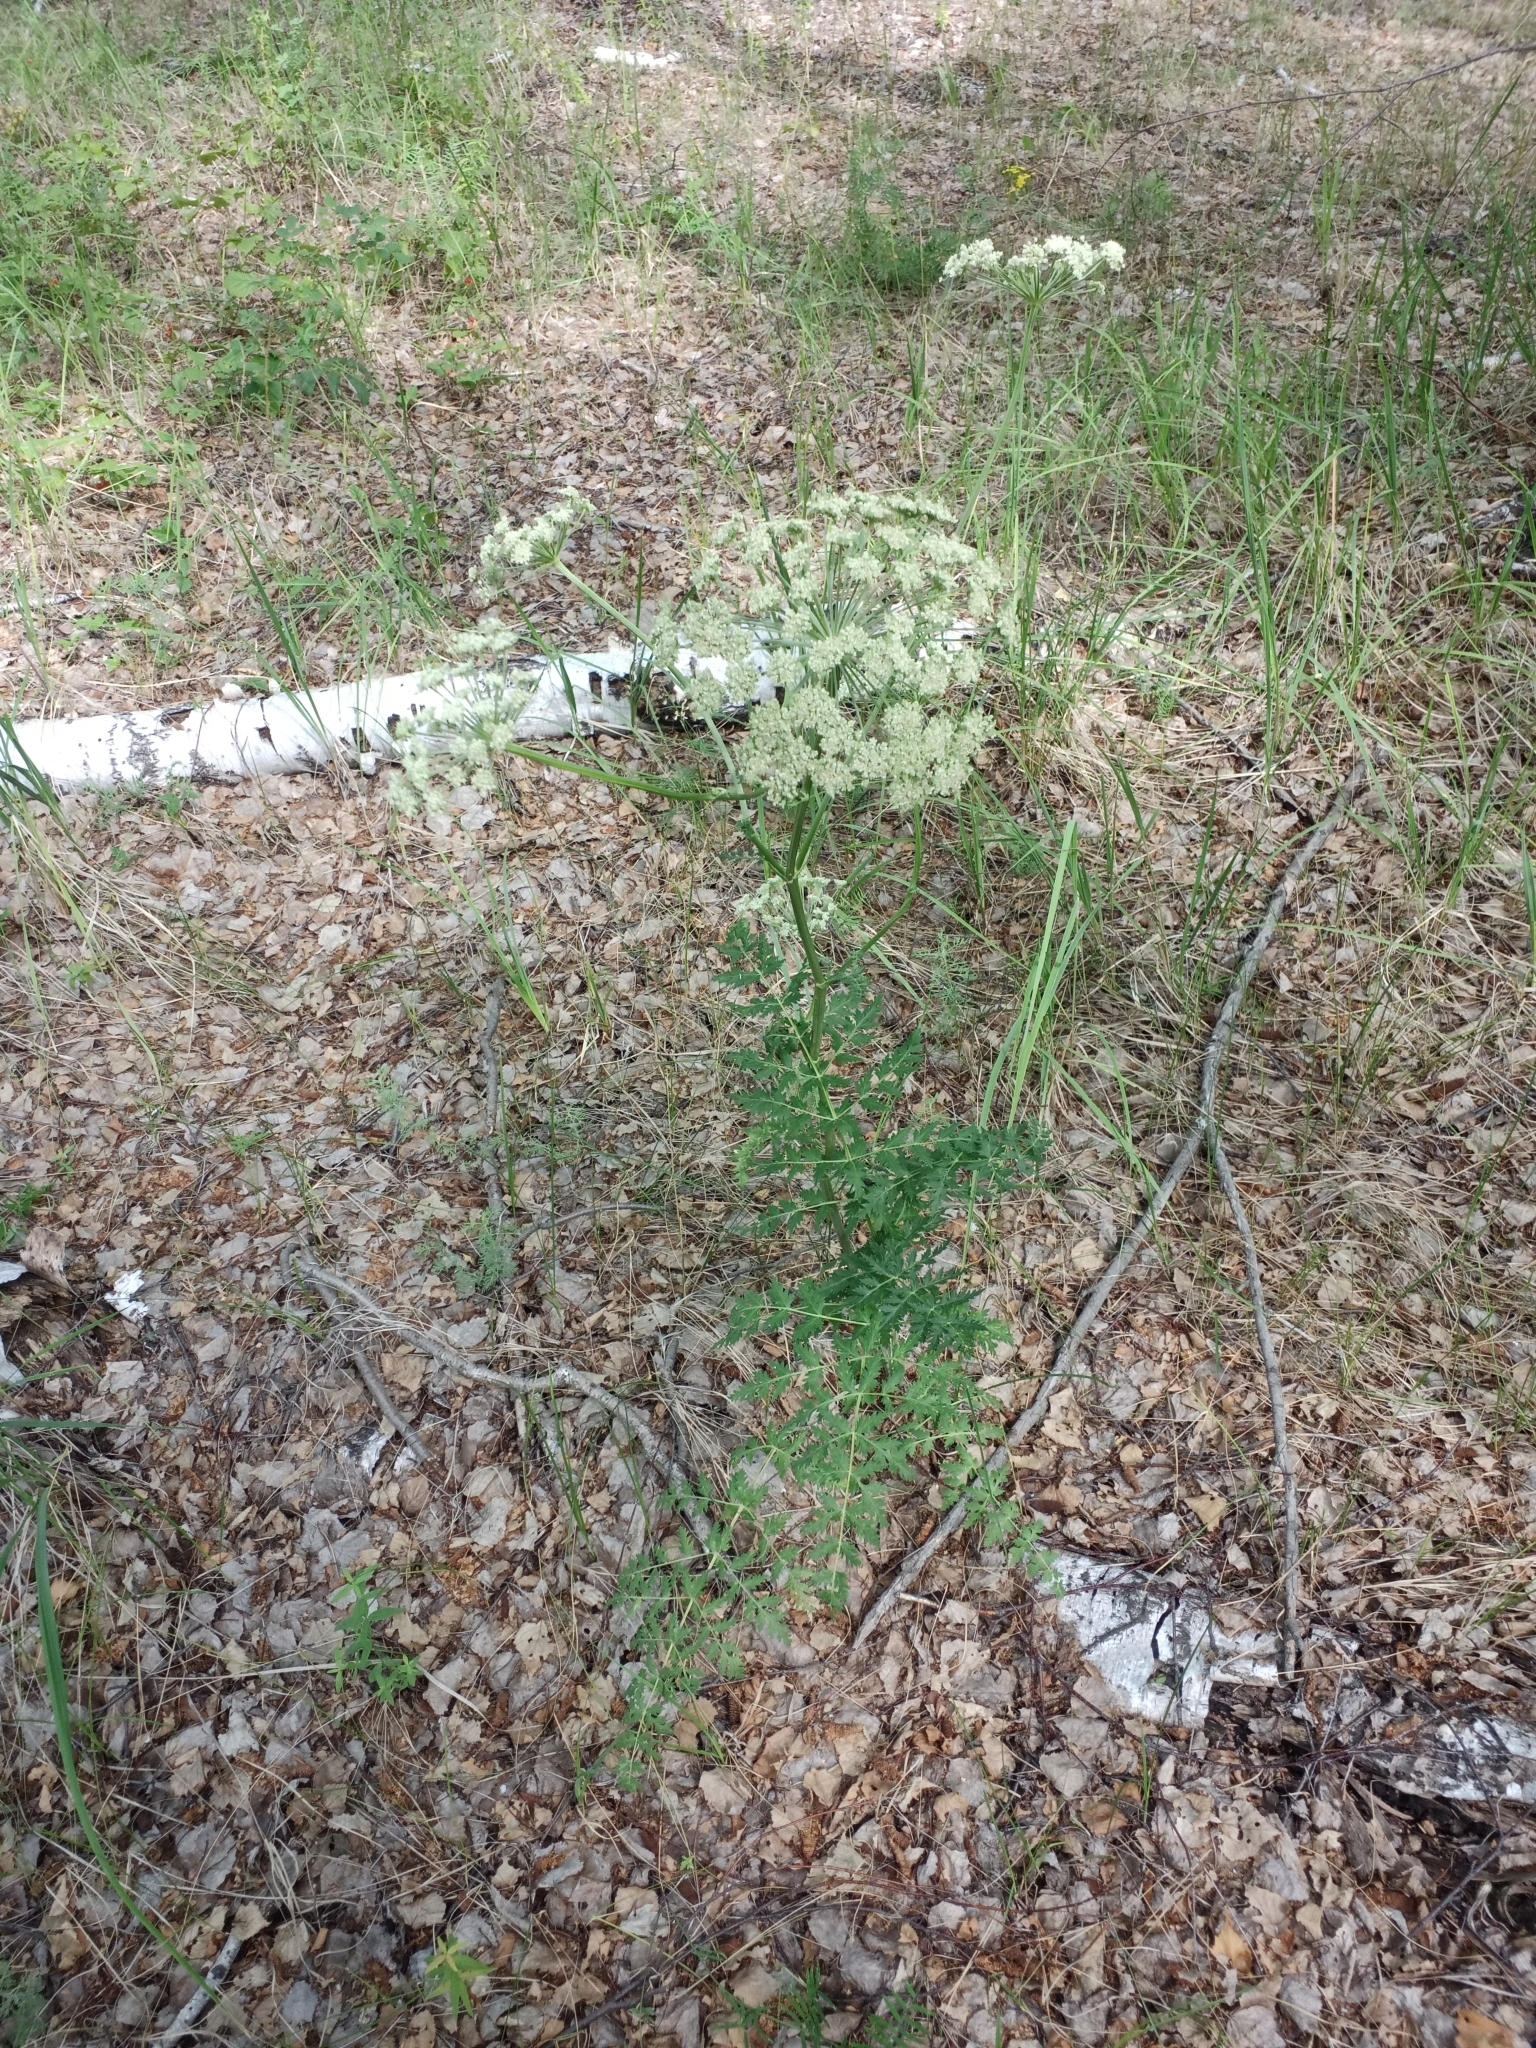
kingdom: Plantae
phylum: Tracheophyta
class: Magnoliopsida
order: Apiales
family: Apiaceae
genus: Seseli
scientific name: Seseli libanotis
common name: Mooncarrot
